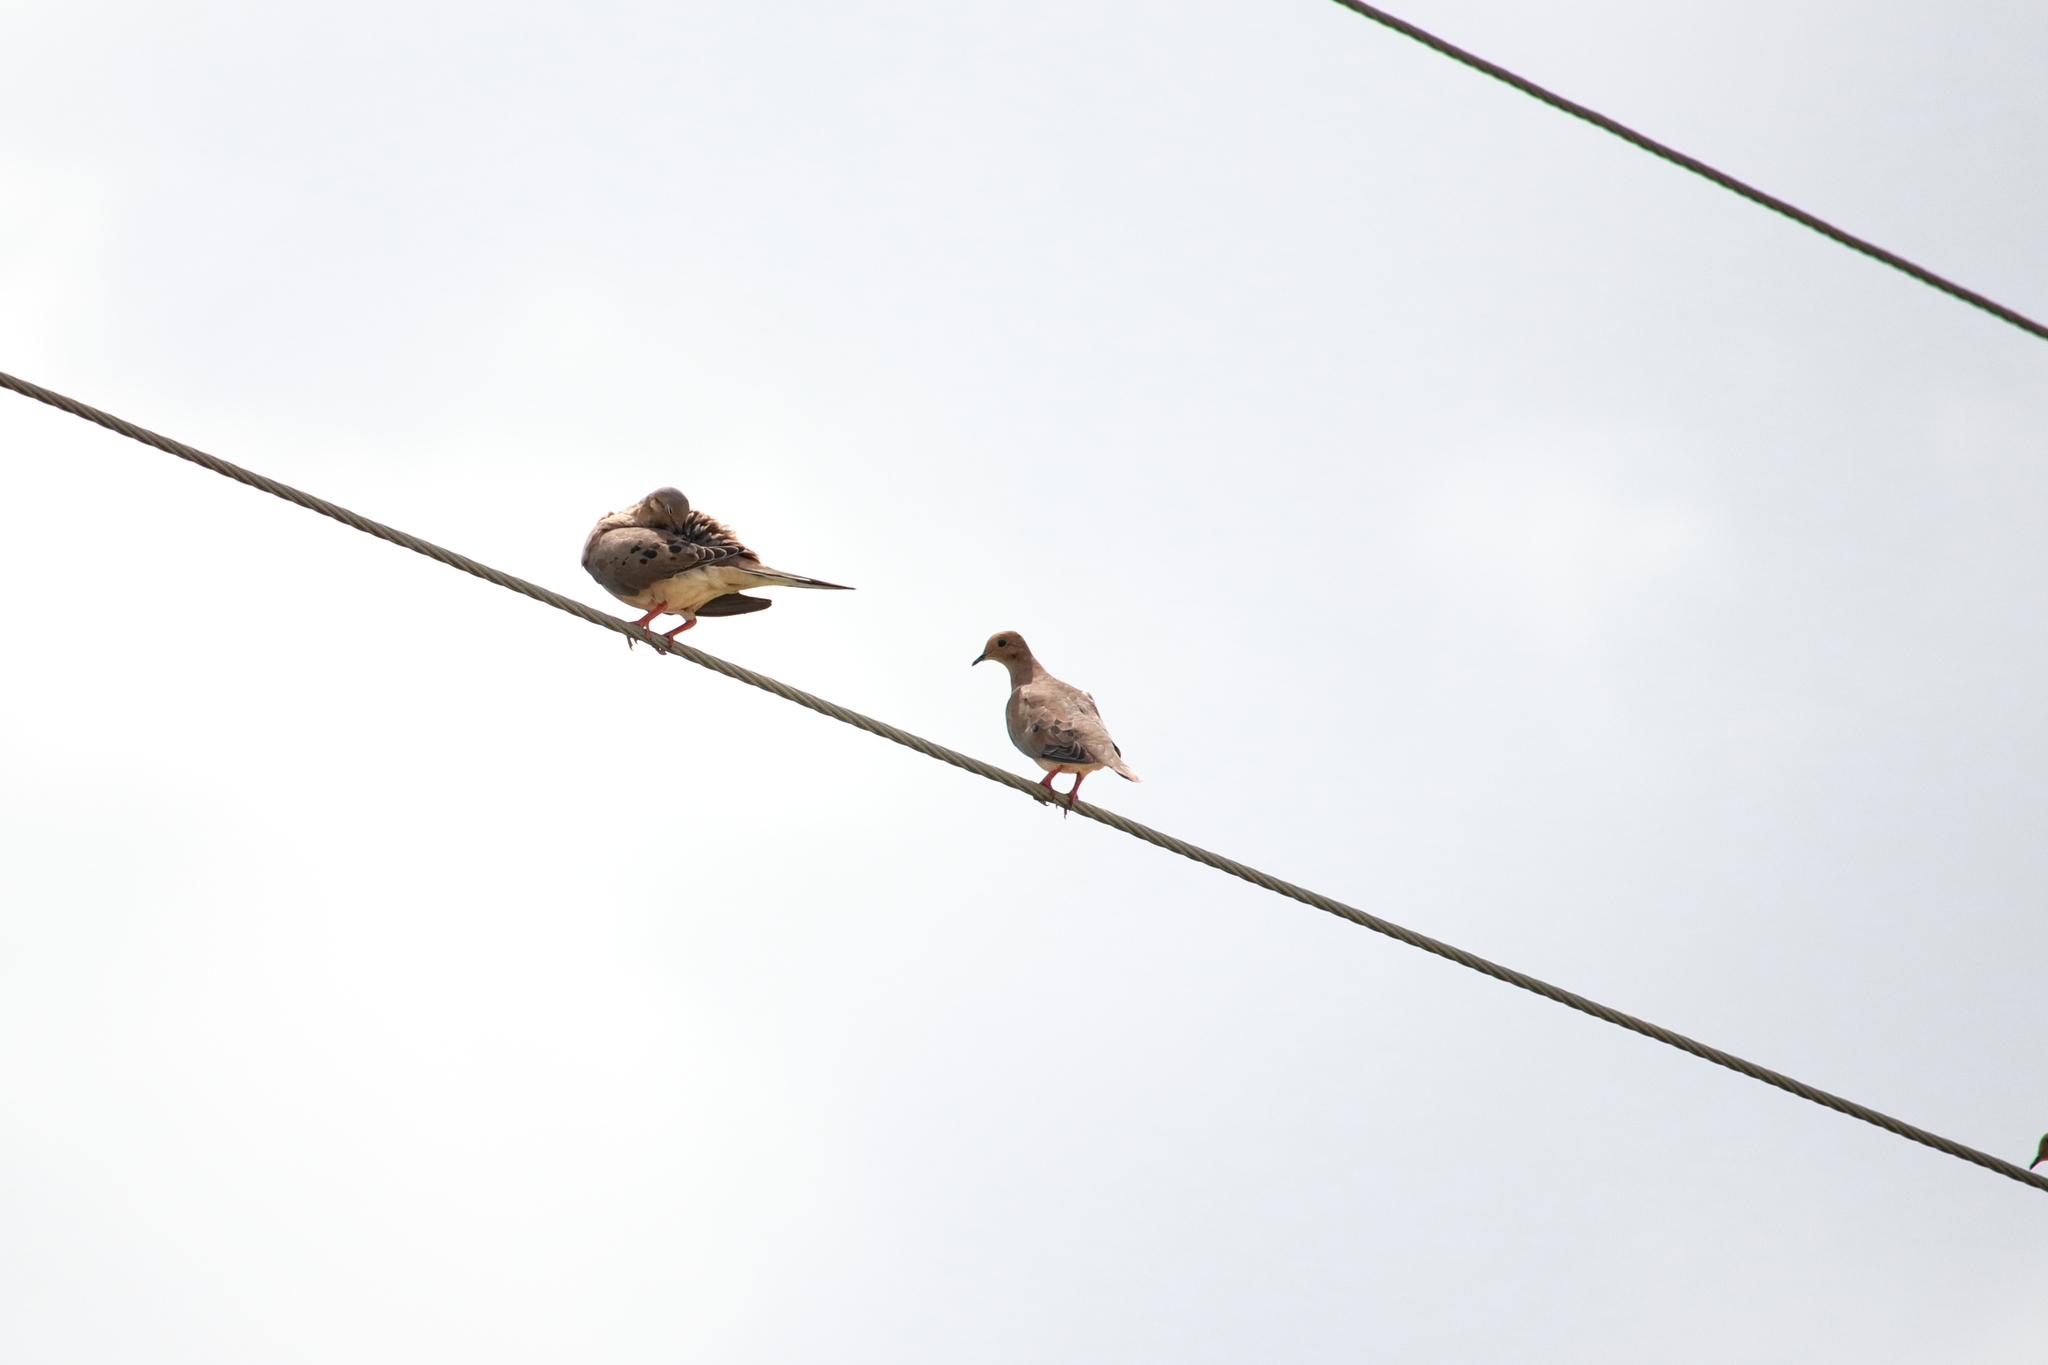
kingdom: Animalia
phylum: Chordata
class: Aves
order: Columbiformes
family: Columbidae
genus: Zenaida
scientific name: Zenaida macroura
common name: Mourning dove
